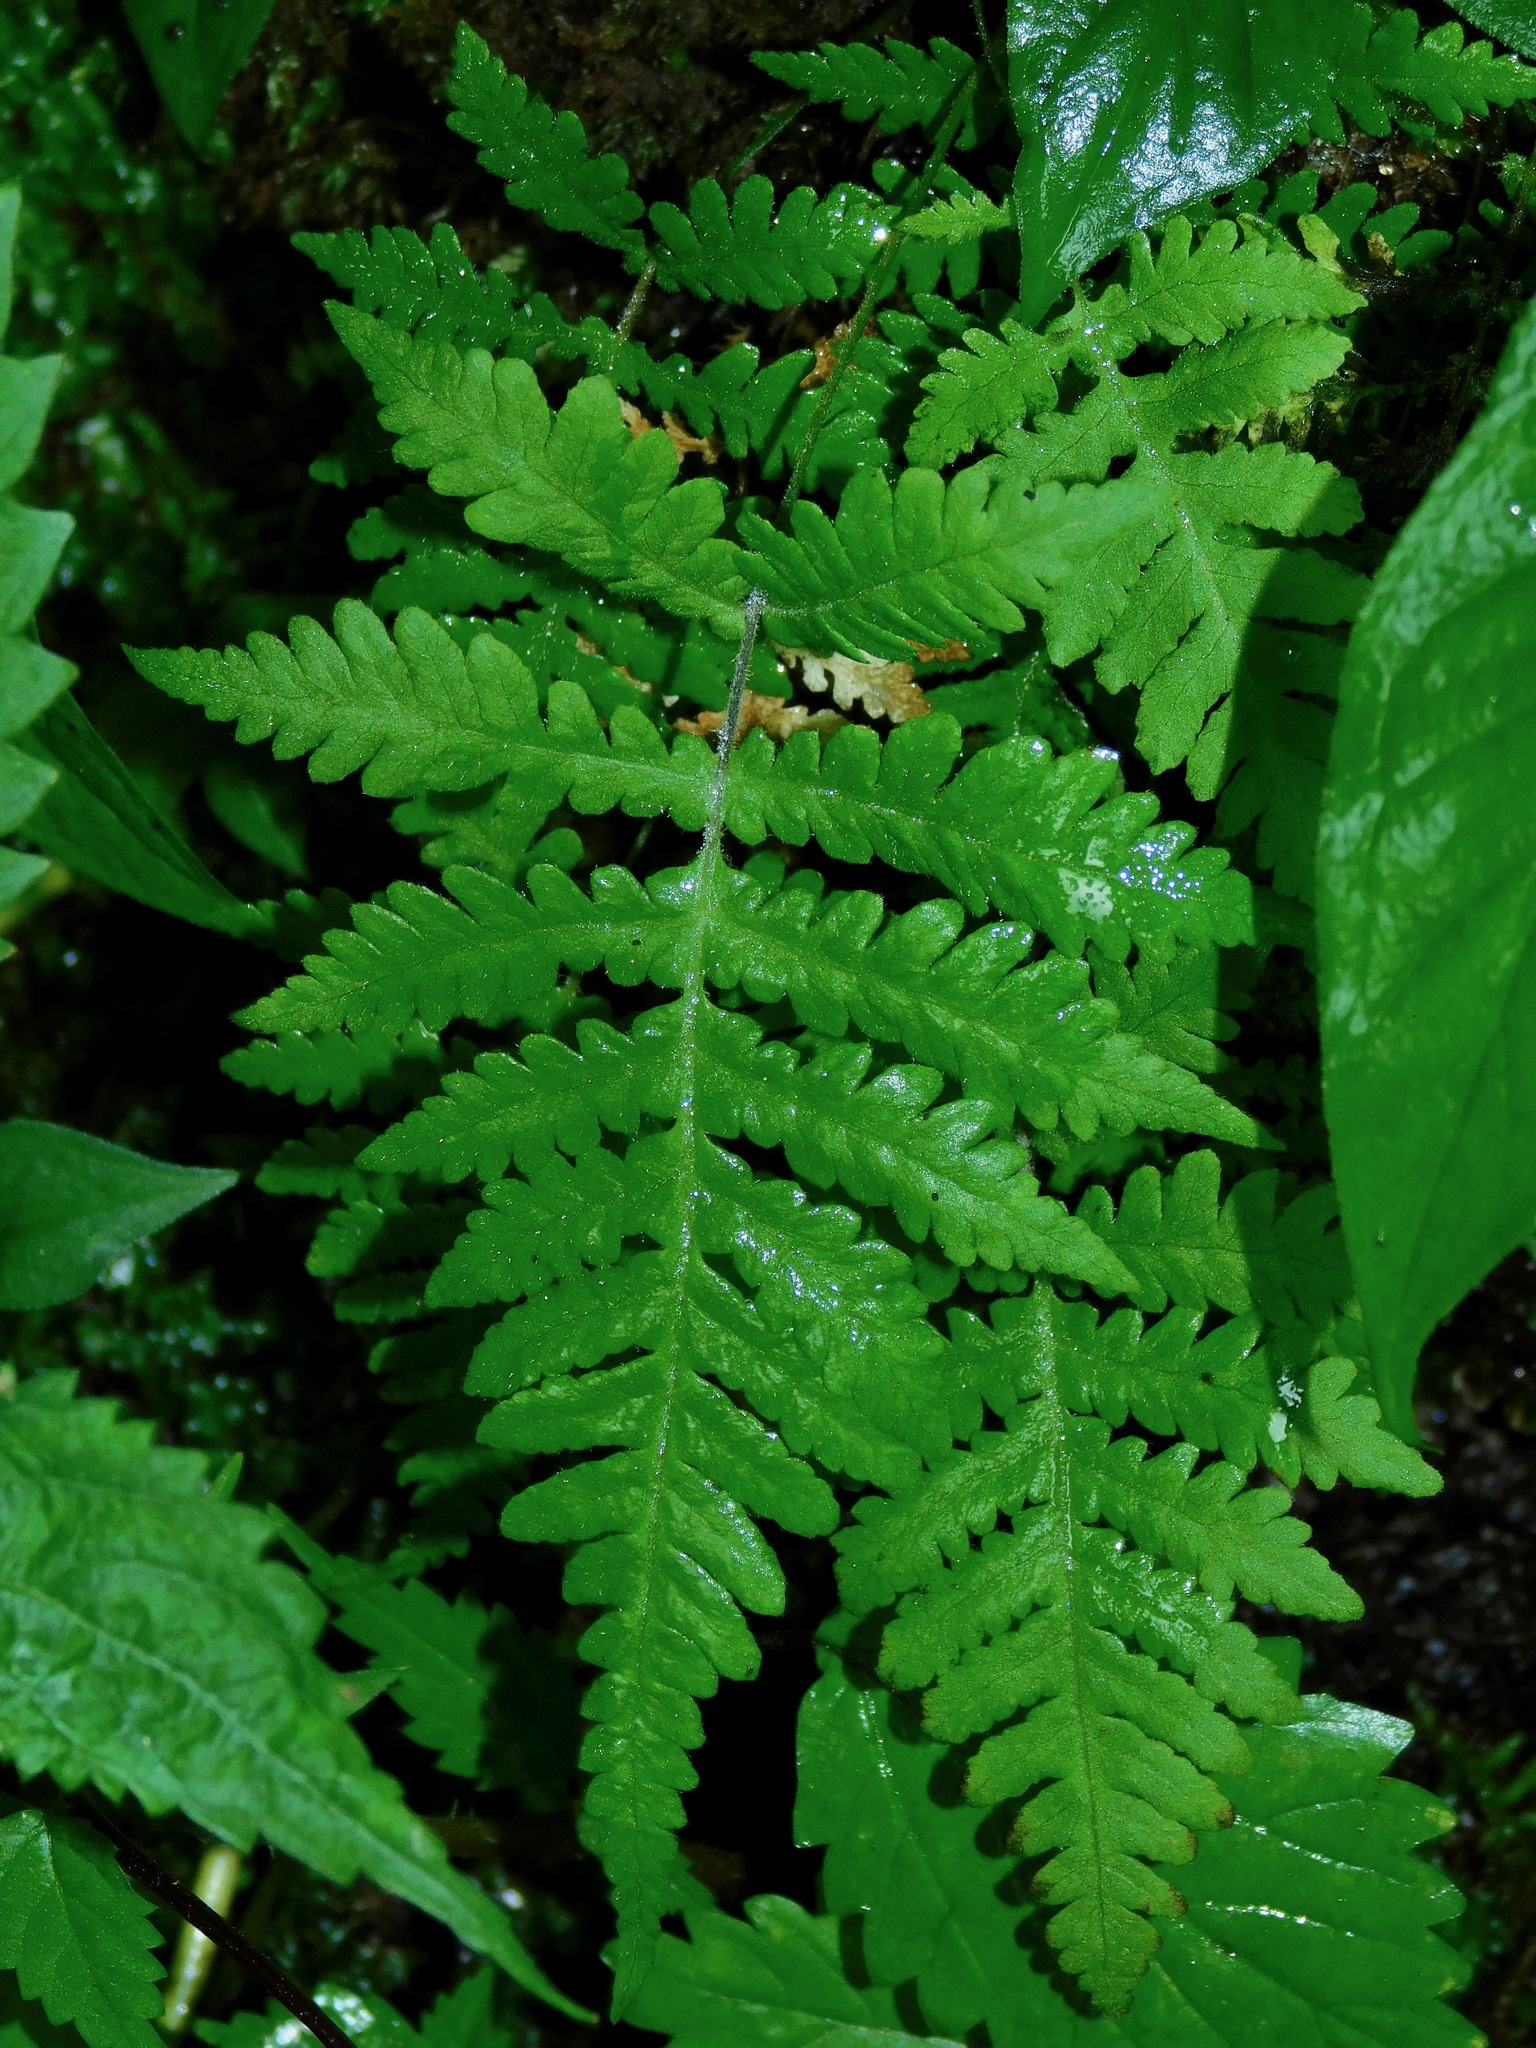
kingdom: Plantae
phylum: Tracheophyta
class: Polypodiopsida
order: Polypodiales
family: Thelypteridaceae
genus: Phegopteris
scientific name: Phegopteris connectilis
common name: Beech fern
